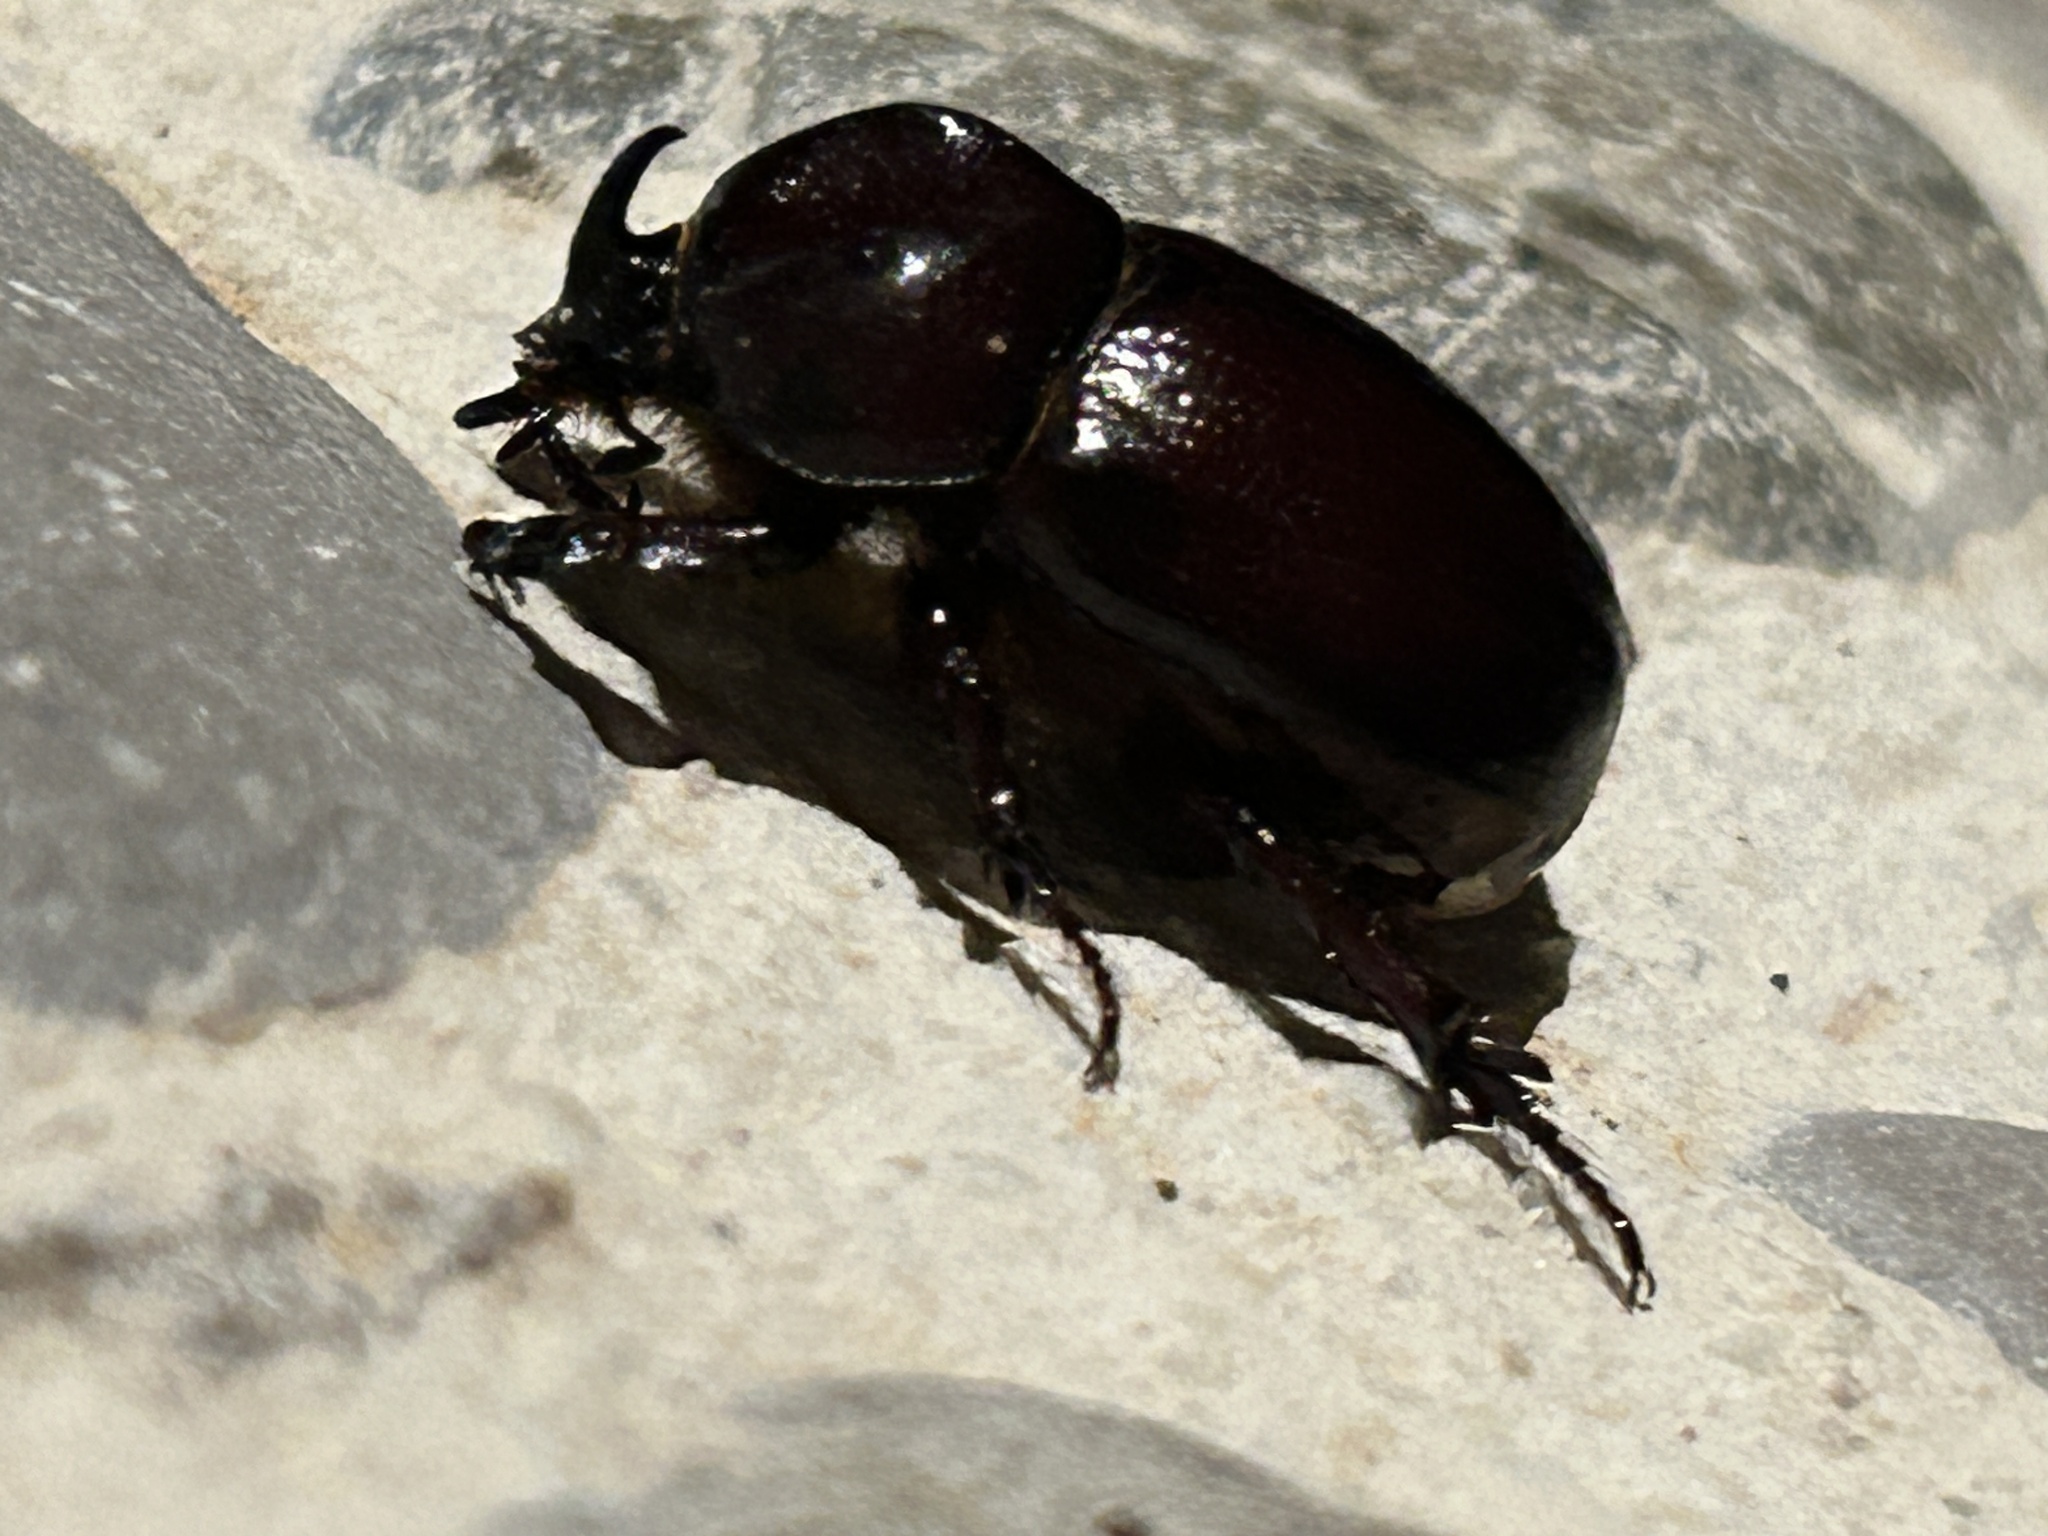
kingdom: Animalia
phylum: Arthropoda
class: Insecta
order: Coleoptera
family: Scarabaeidae
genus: Phyllognathus
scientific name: Phyllognathus excavatus
